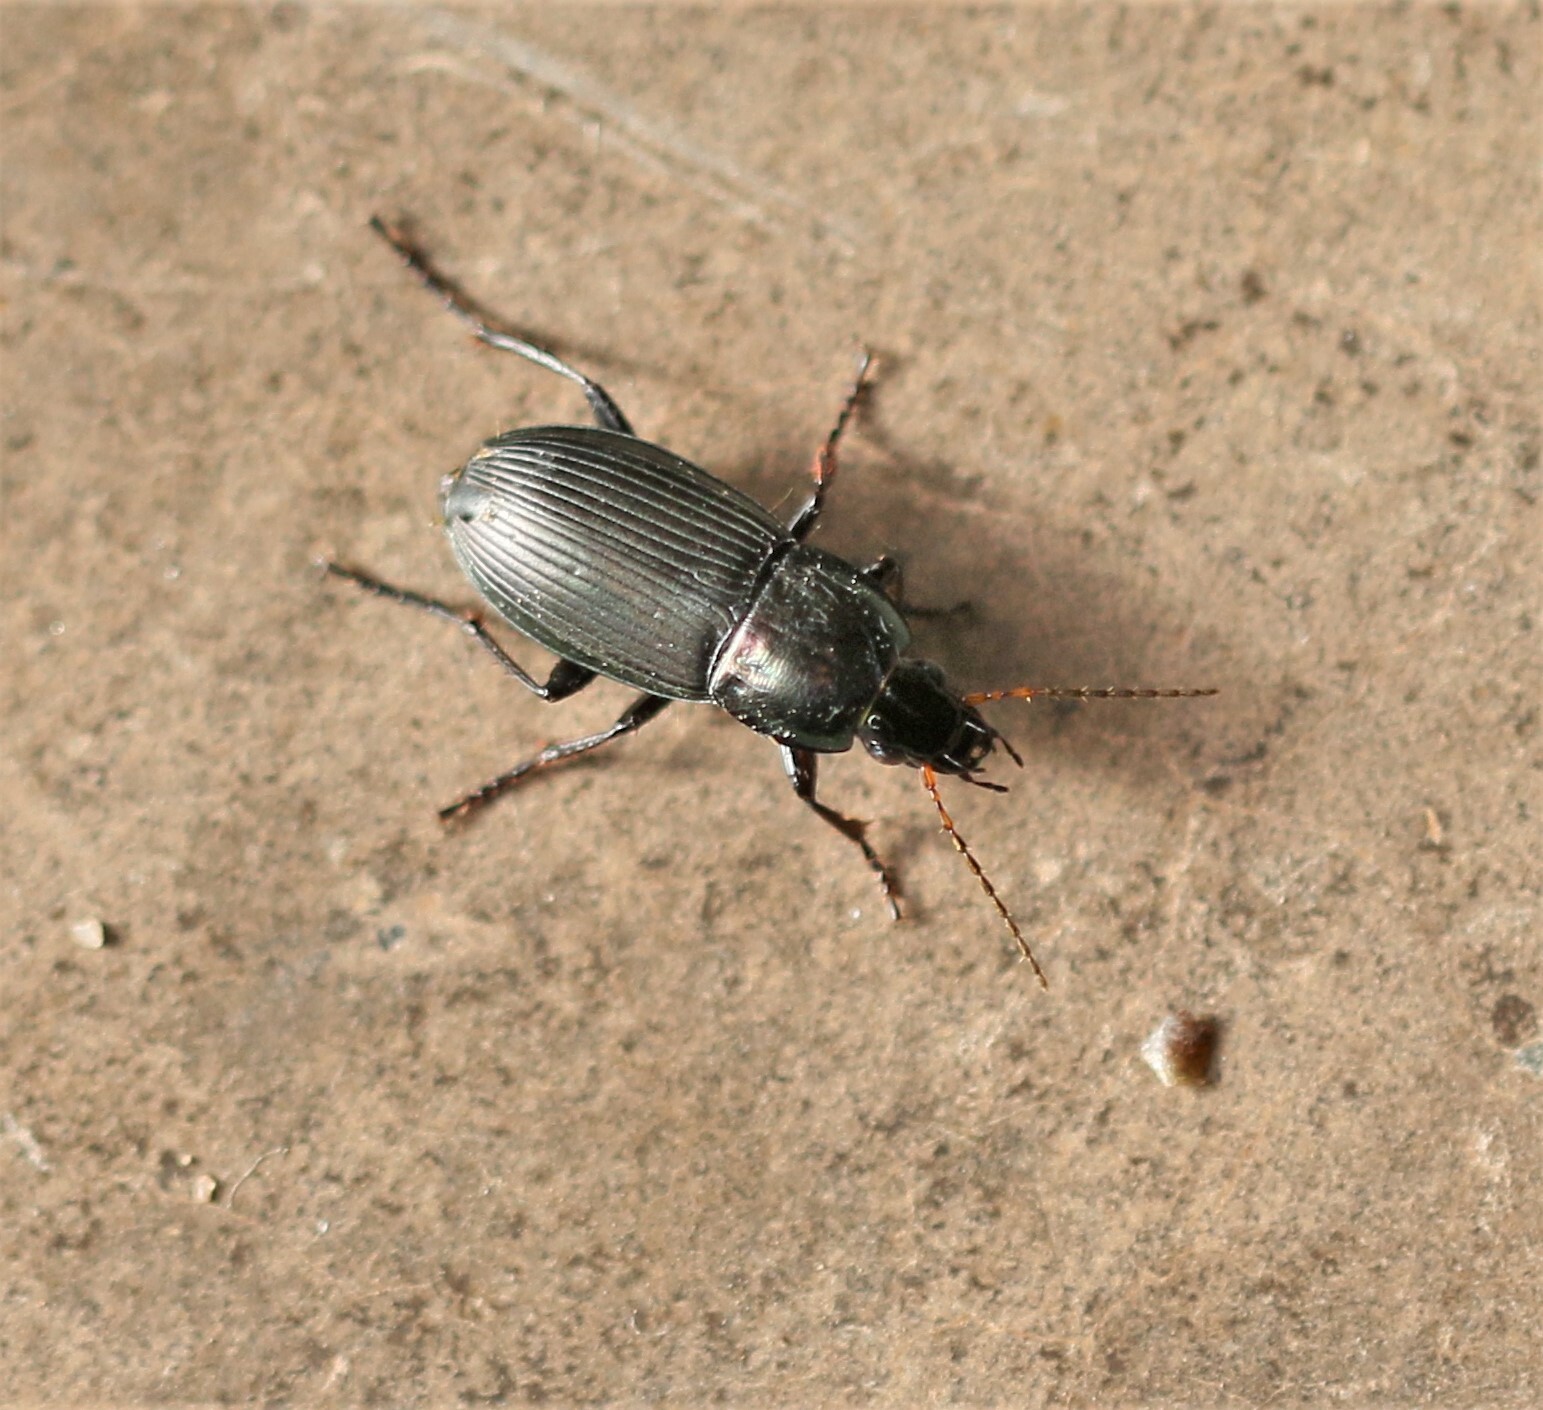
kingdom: Animalia
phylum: Arthropoda
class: Insecta
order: Coleoptera
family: Carabidae
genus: Poecilus
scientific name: Poecilus lucublandus
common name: Woodland ground beetle
